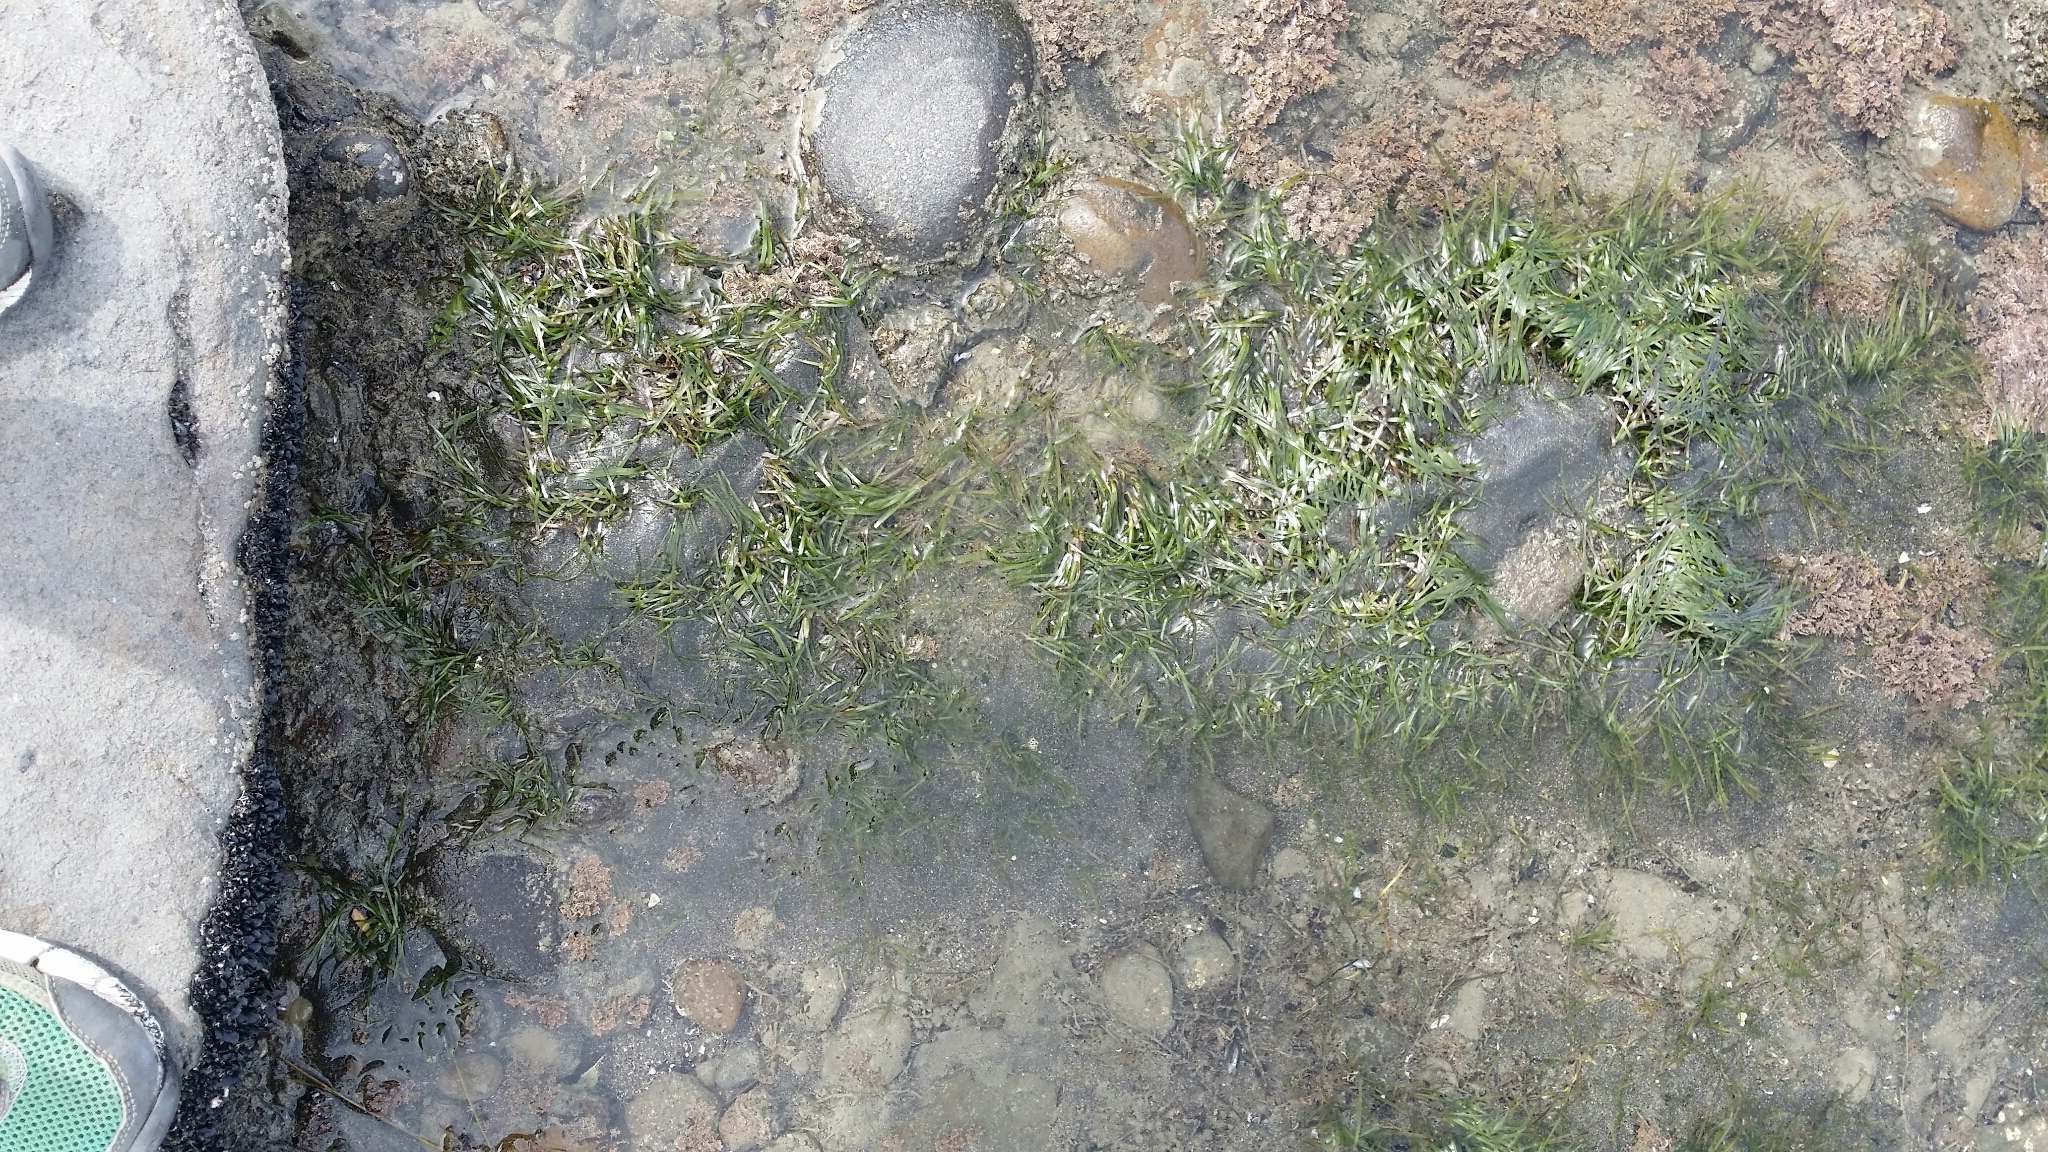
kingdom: Plantae
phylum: Tracheophyta
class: Liliopsida
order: Alismatales
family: Zosteraceae
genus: Zostera
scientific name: Zostera novazelandica
